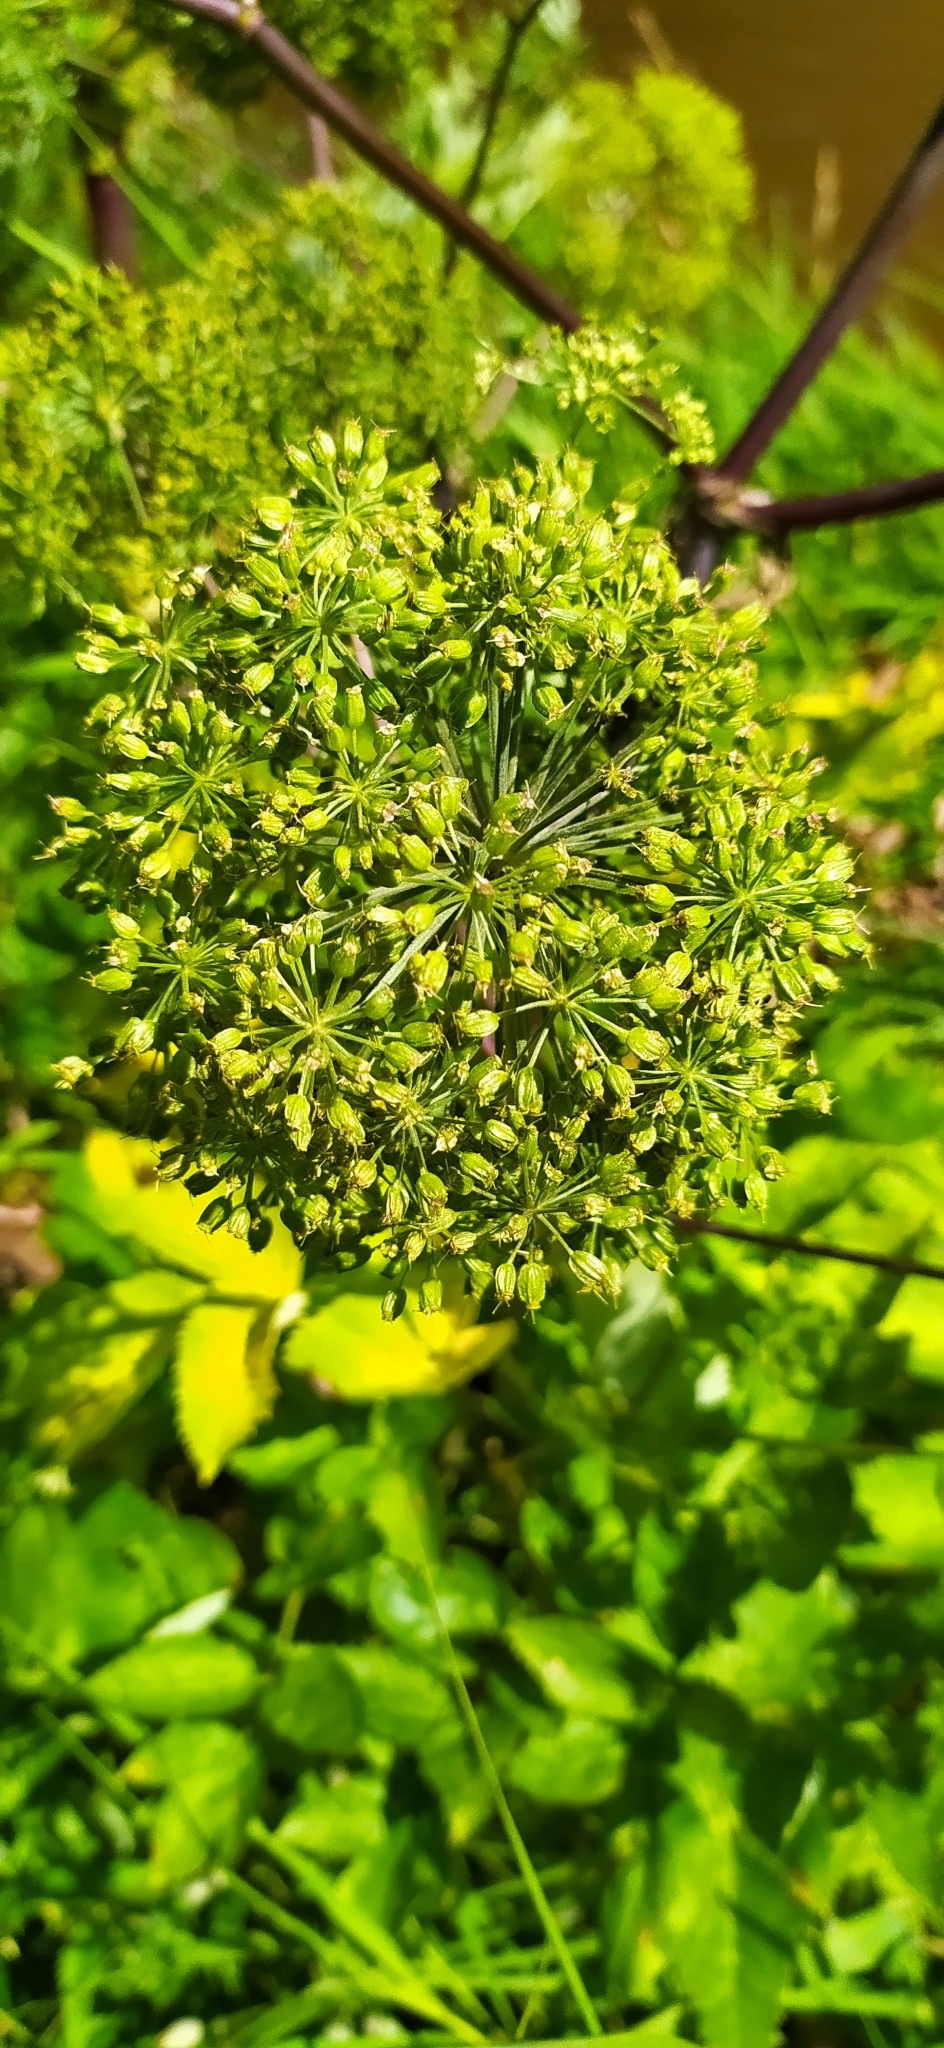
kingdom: Plantae
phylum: Tracheophyta
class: Magnoliopsida
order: Apiales
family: Apiaceae
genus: Angelica
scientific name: Angelica decurrens
